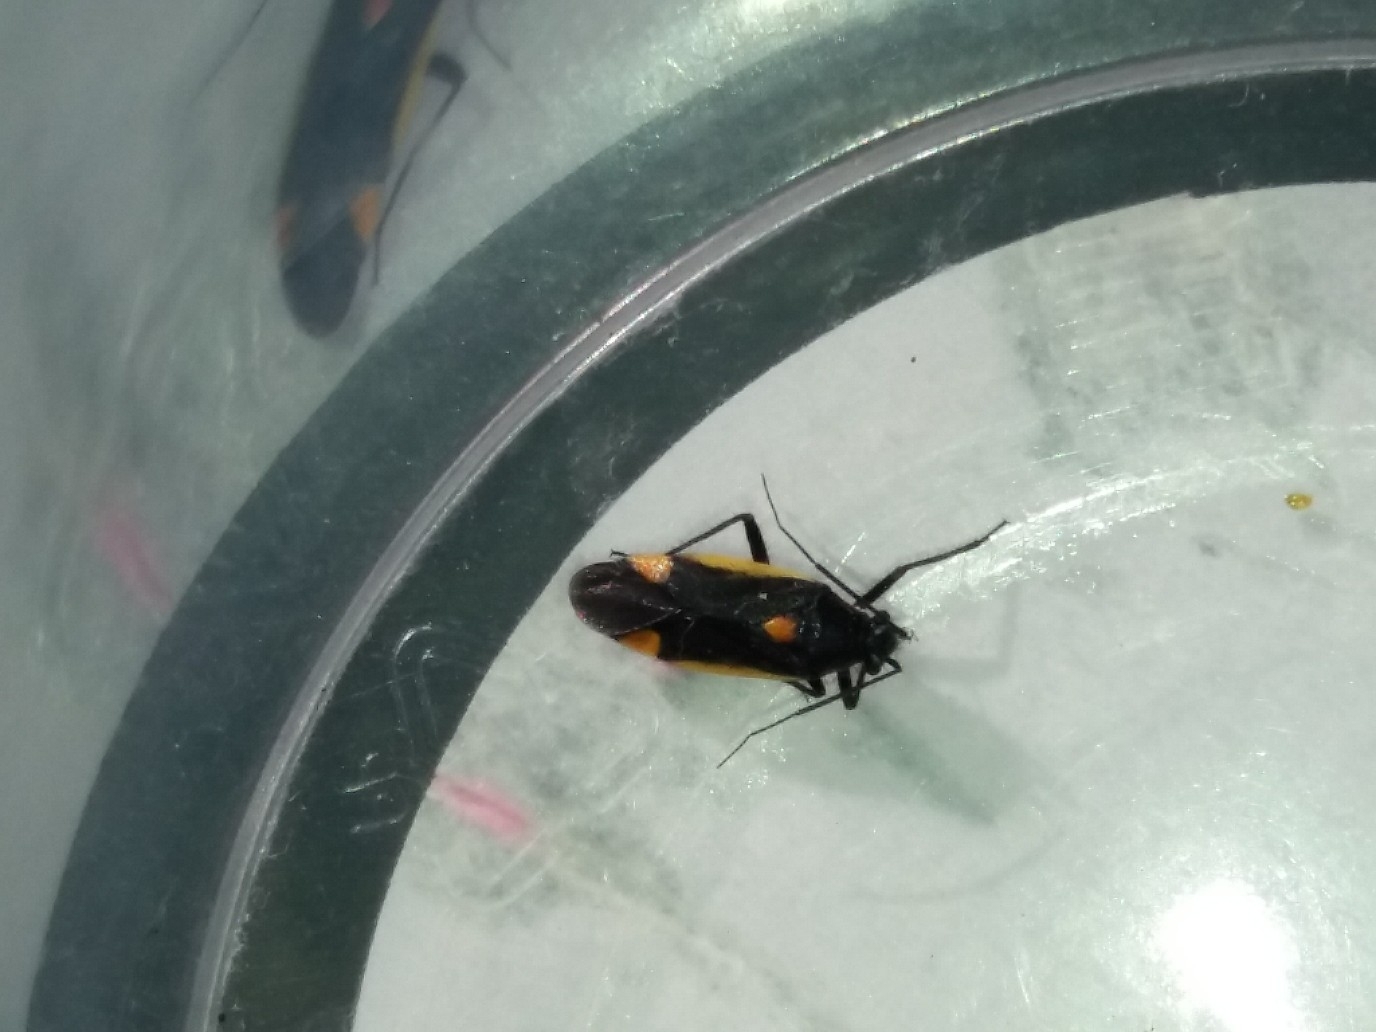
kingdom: Animalia
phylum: Arthropoda
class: Insecta
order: Hemiptera
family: Miridae
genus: Capsodes
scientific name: Capsodes gothicus
